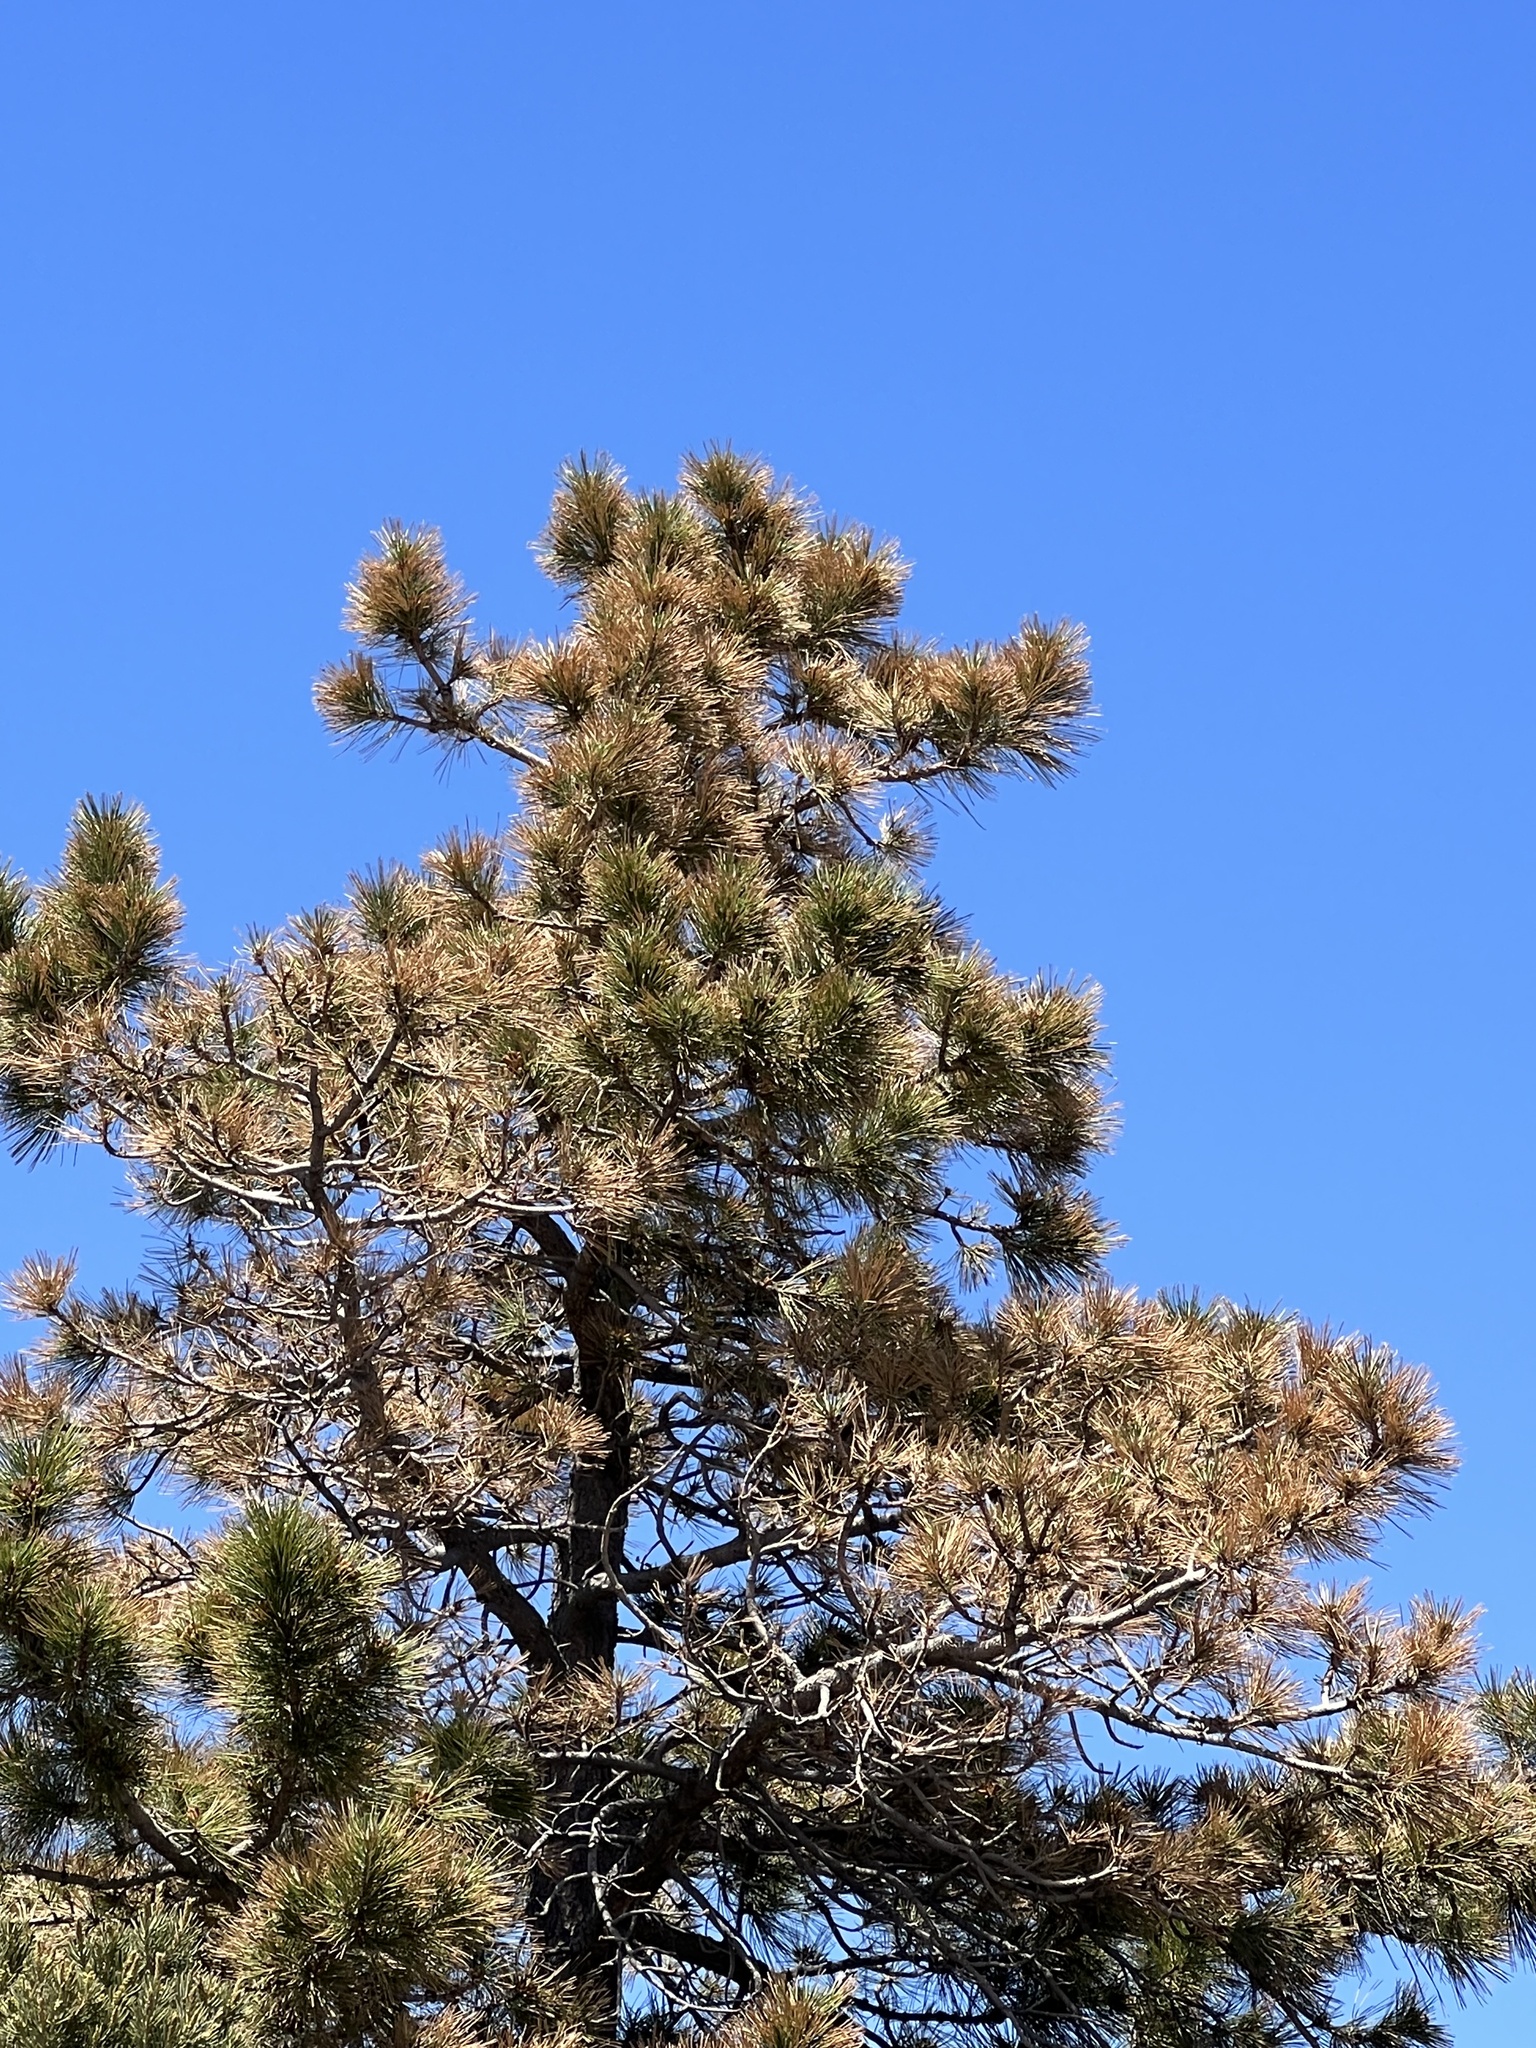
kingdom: Plantae
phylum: Tracheophyta
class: Pinopsida
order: Pinales
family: Pinaceae
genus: Pinus
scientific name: Pinus ponderosa
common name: Western yellow-pine
